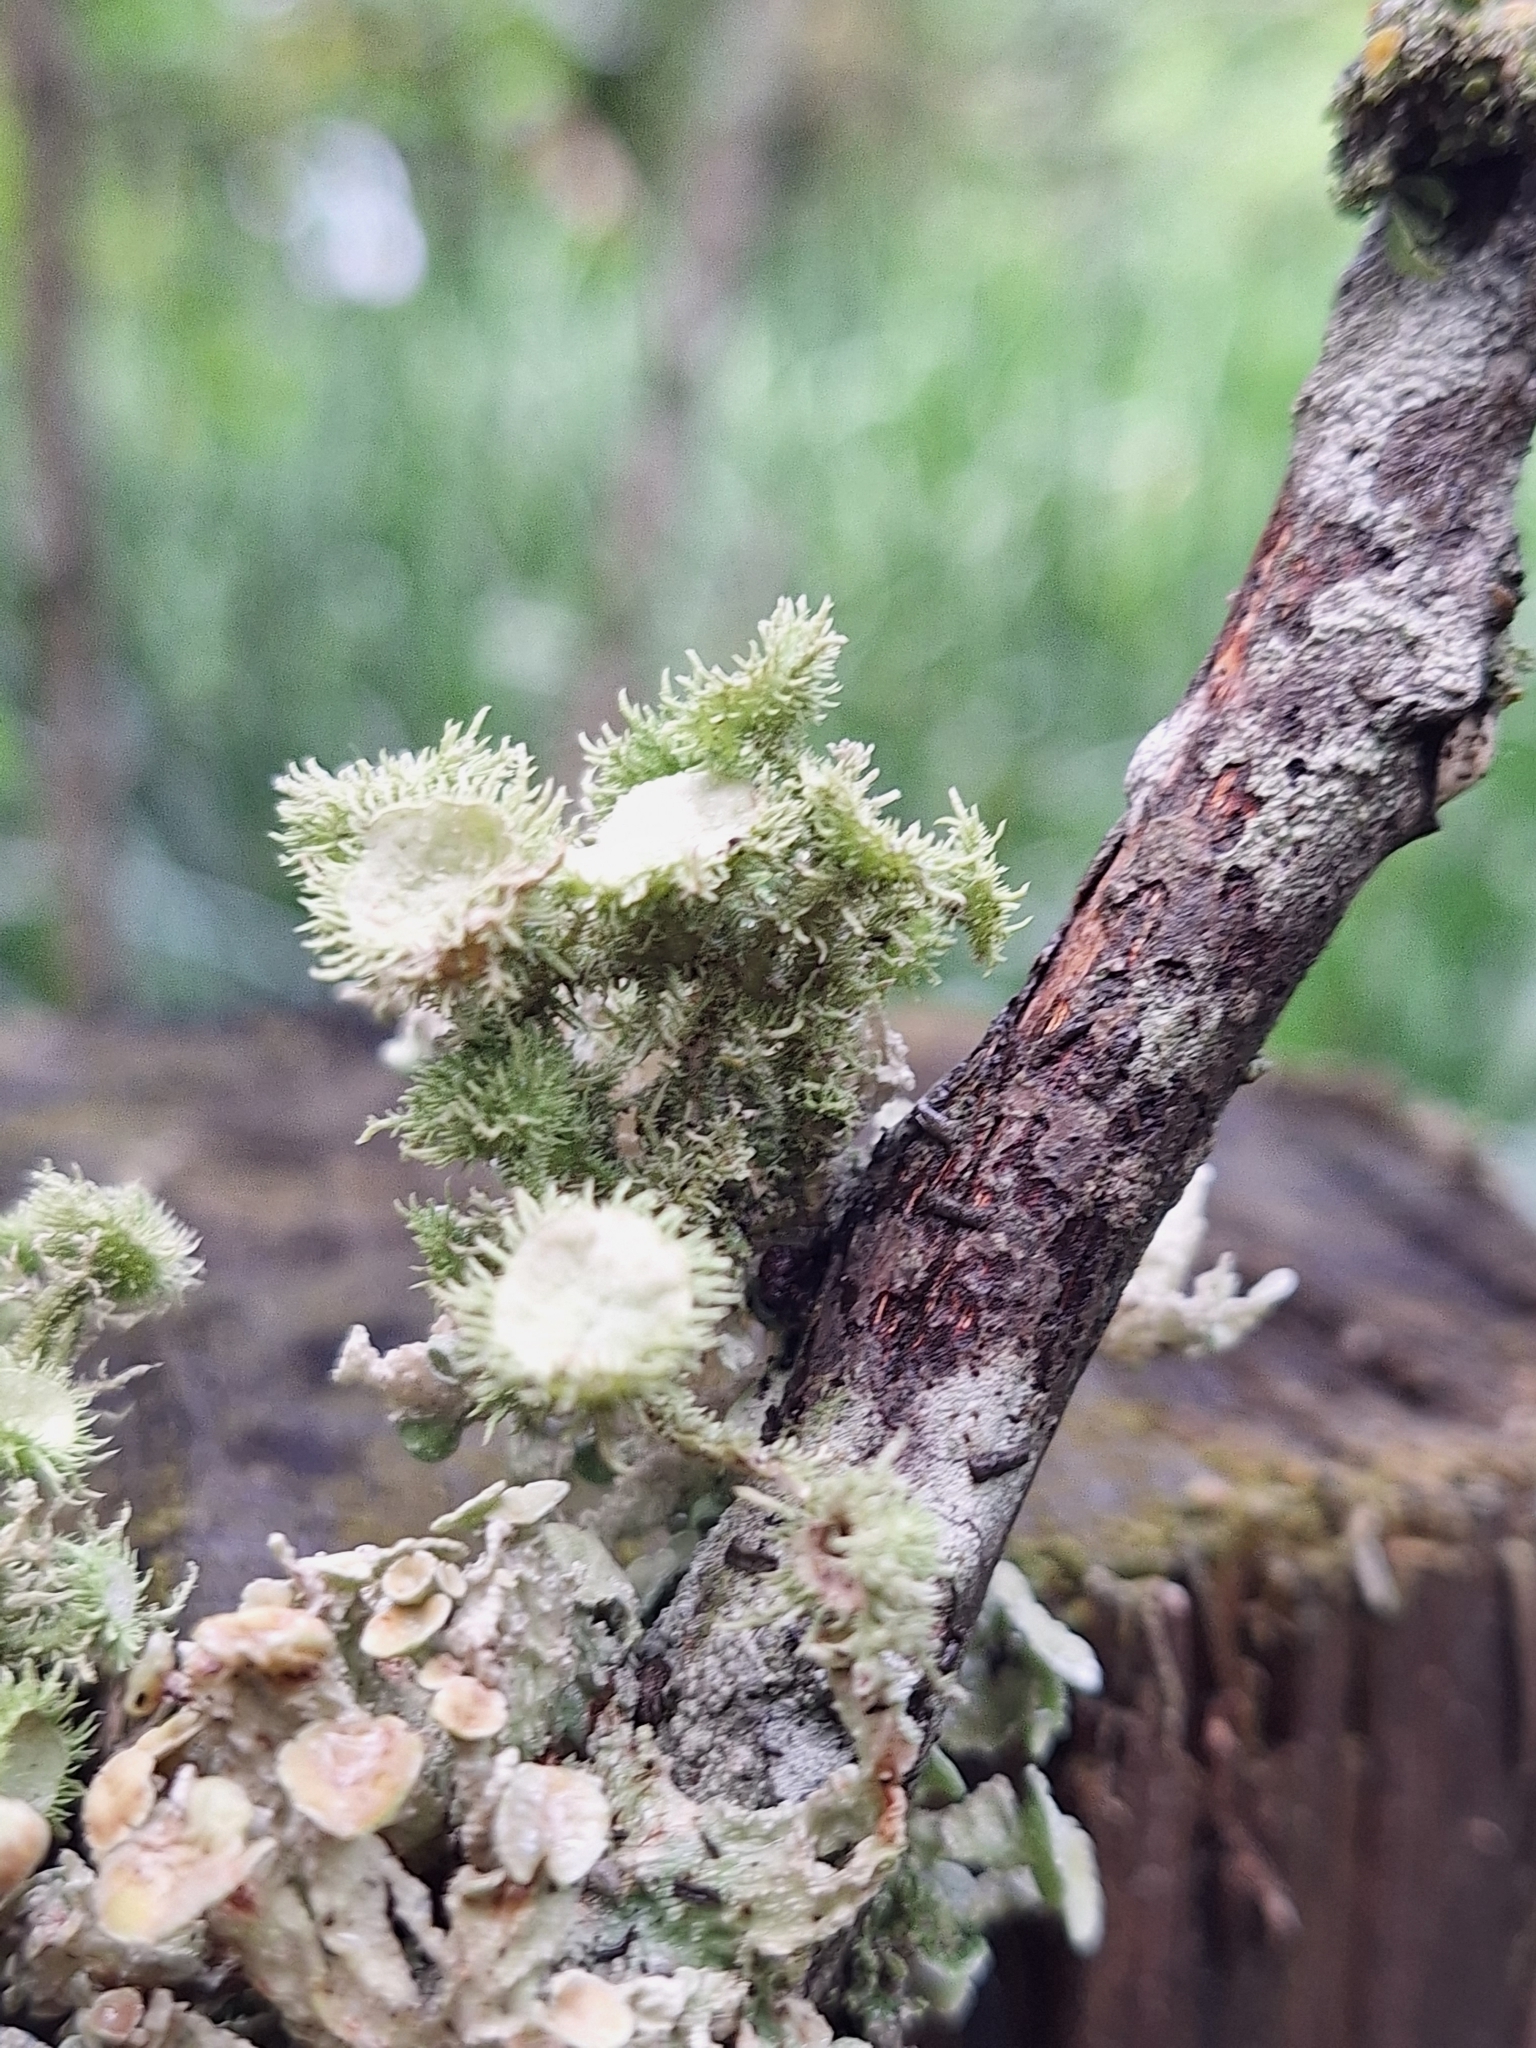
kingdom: Fungi
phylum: Ascomycota
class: Lecanoromycetes
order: Lecanorales
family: Parmeliaceae
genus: Usnea
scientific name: Usnea strigosa
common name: Bushy beard lichen
